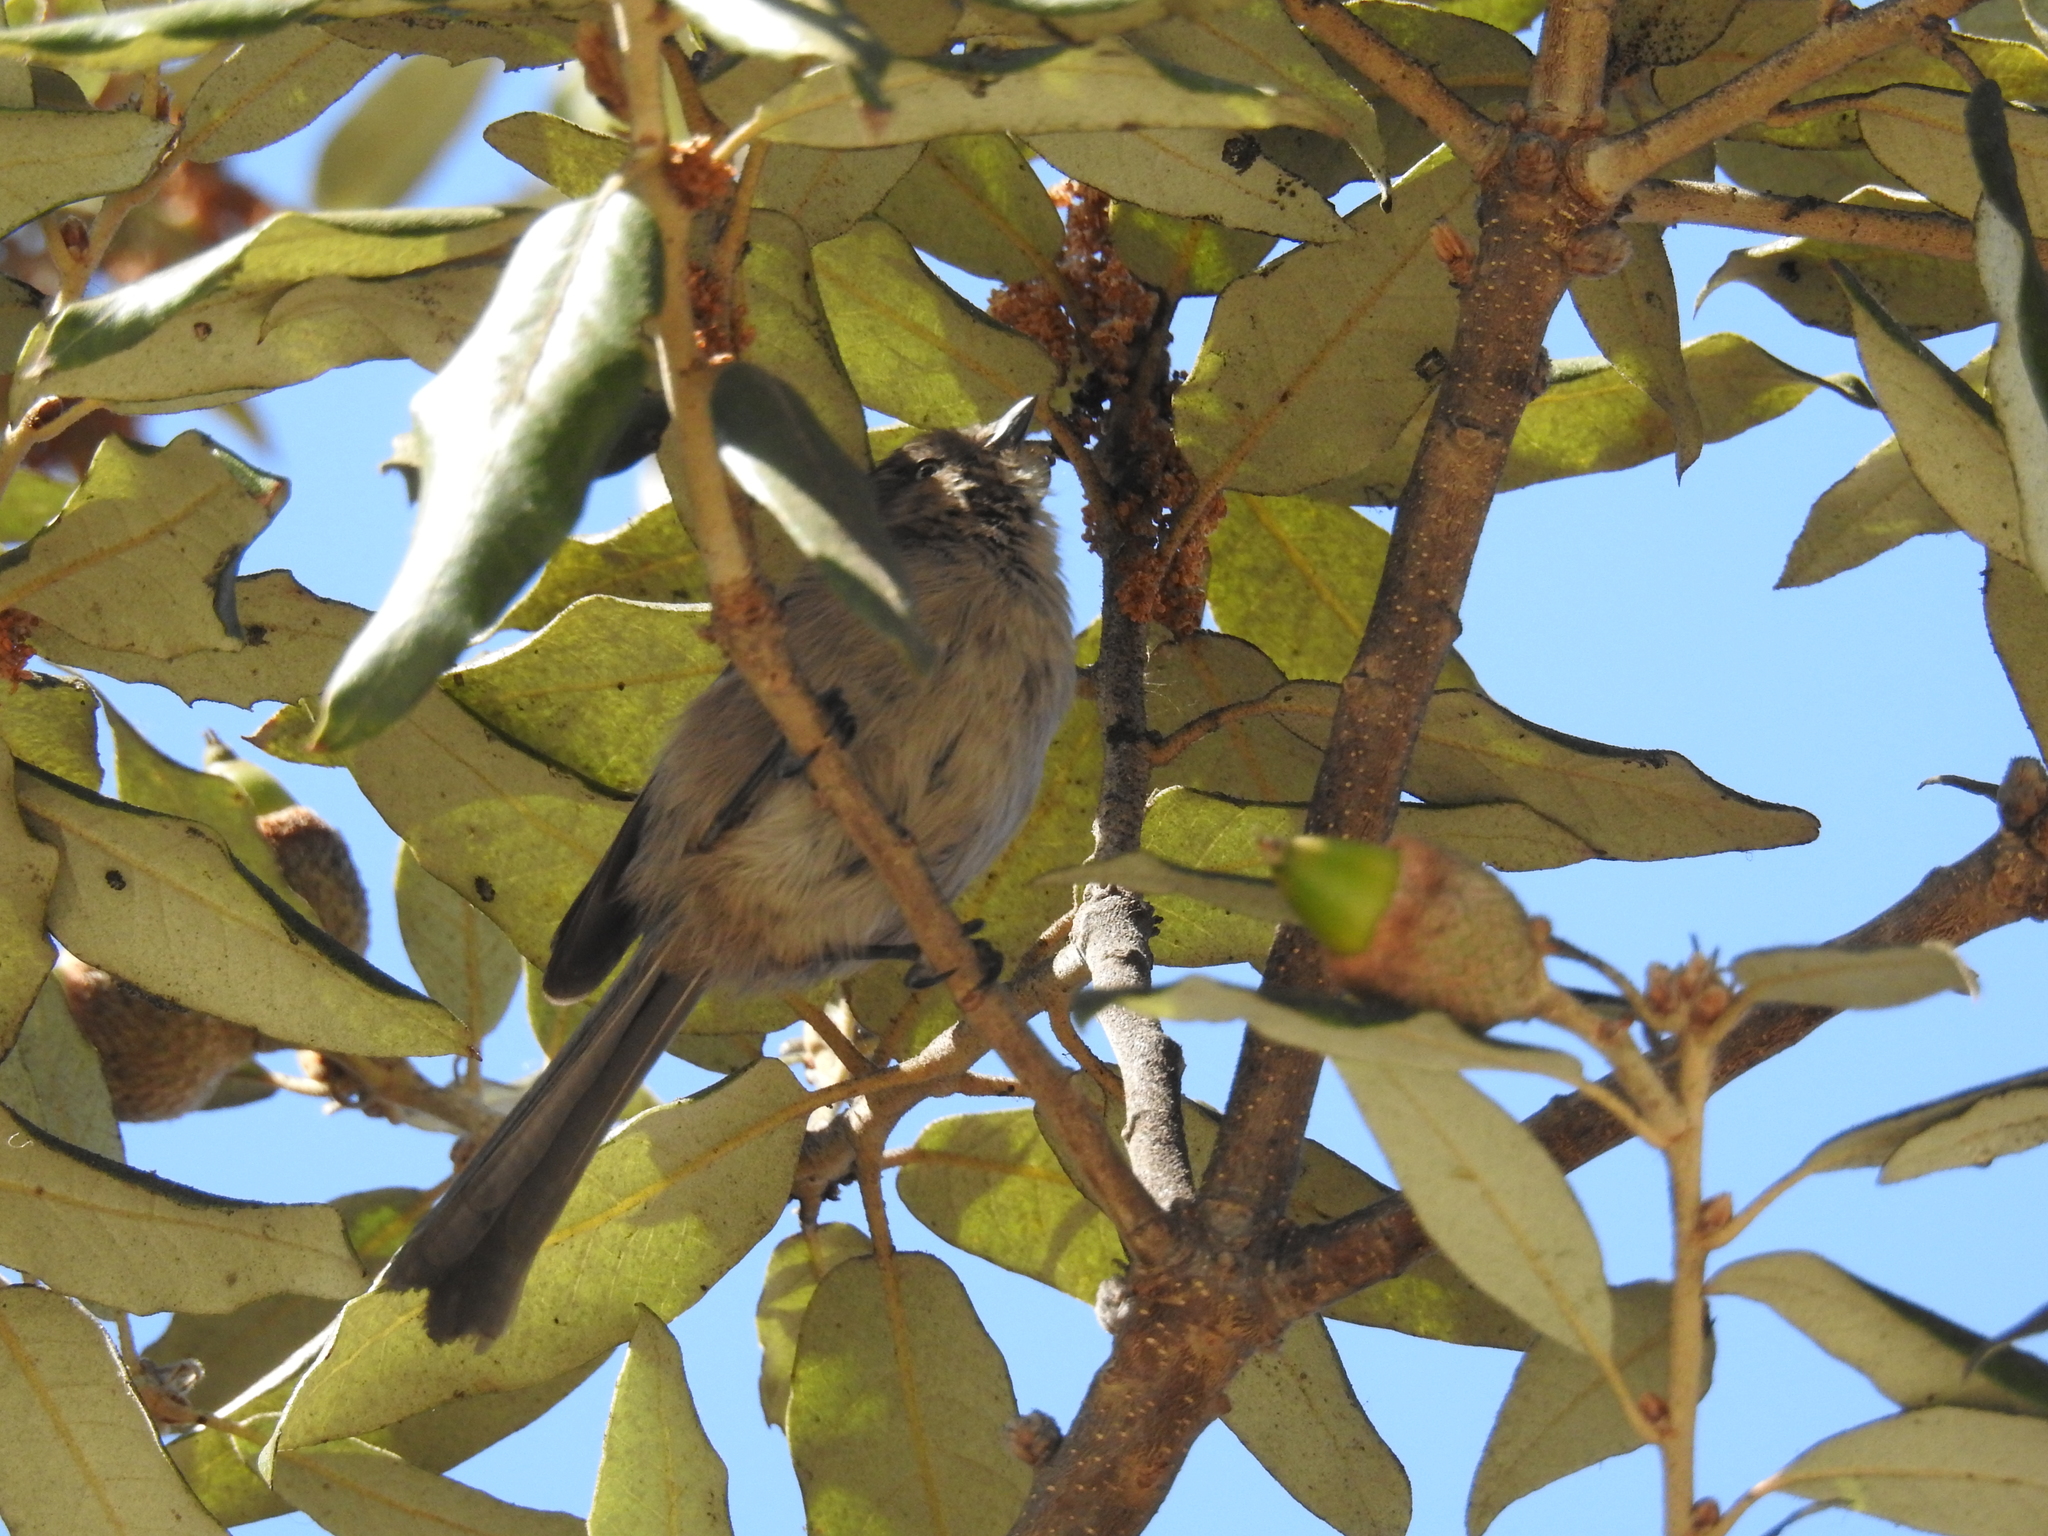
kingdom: Animalia
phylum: Chordata
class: Aves
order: Passeriformes
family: Aegithalidae
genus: Psaltriparus
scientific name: Psaltriparus minimus
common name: American bushtit
